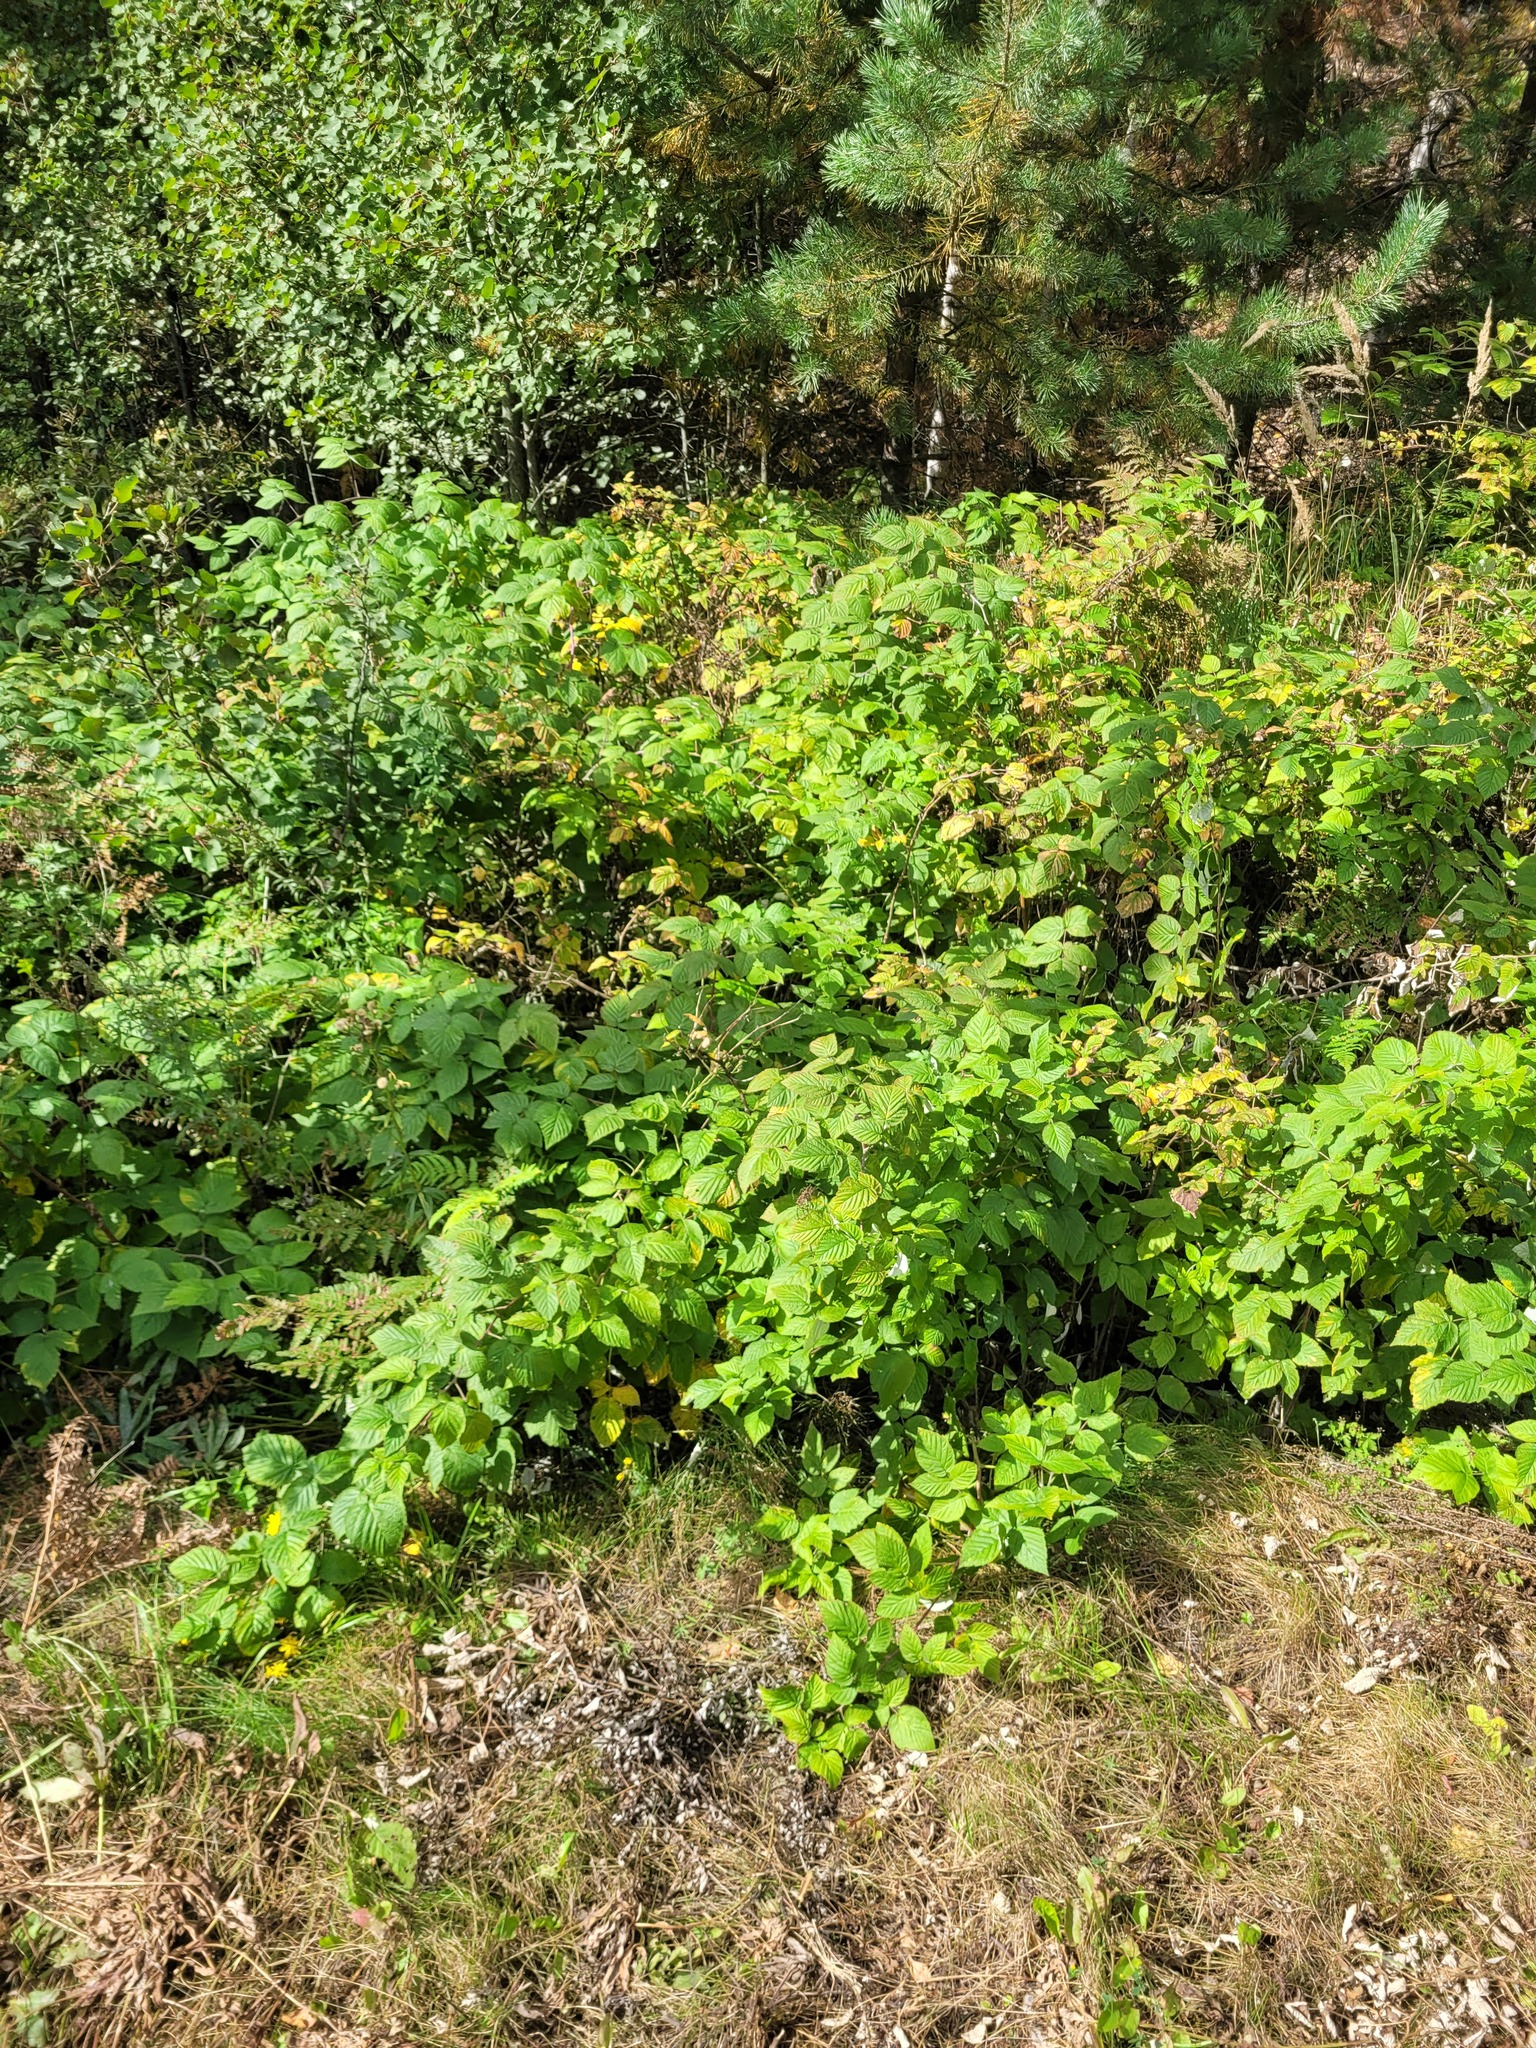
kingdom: Plantae
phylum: Tracheophyta
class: Magnoliopsida
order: Rosales
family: Rosaceae
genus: Rubus
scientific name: Rubus idaeus
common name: Raspberry
